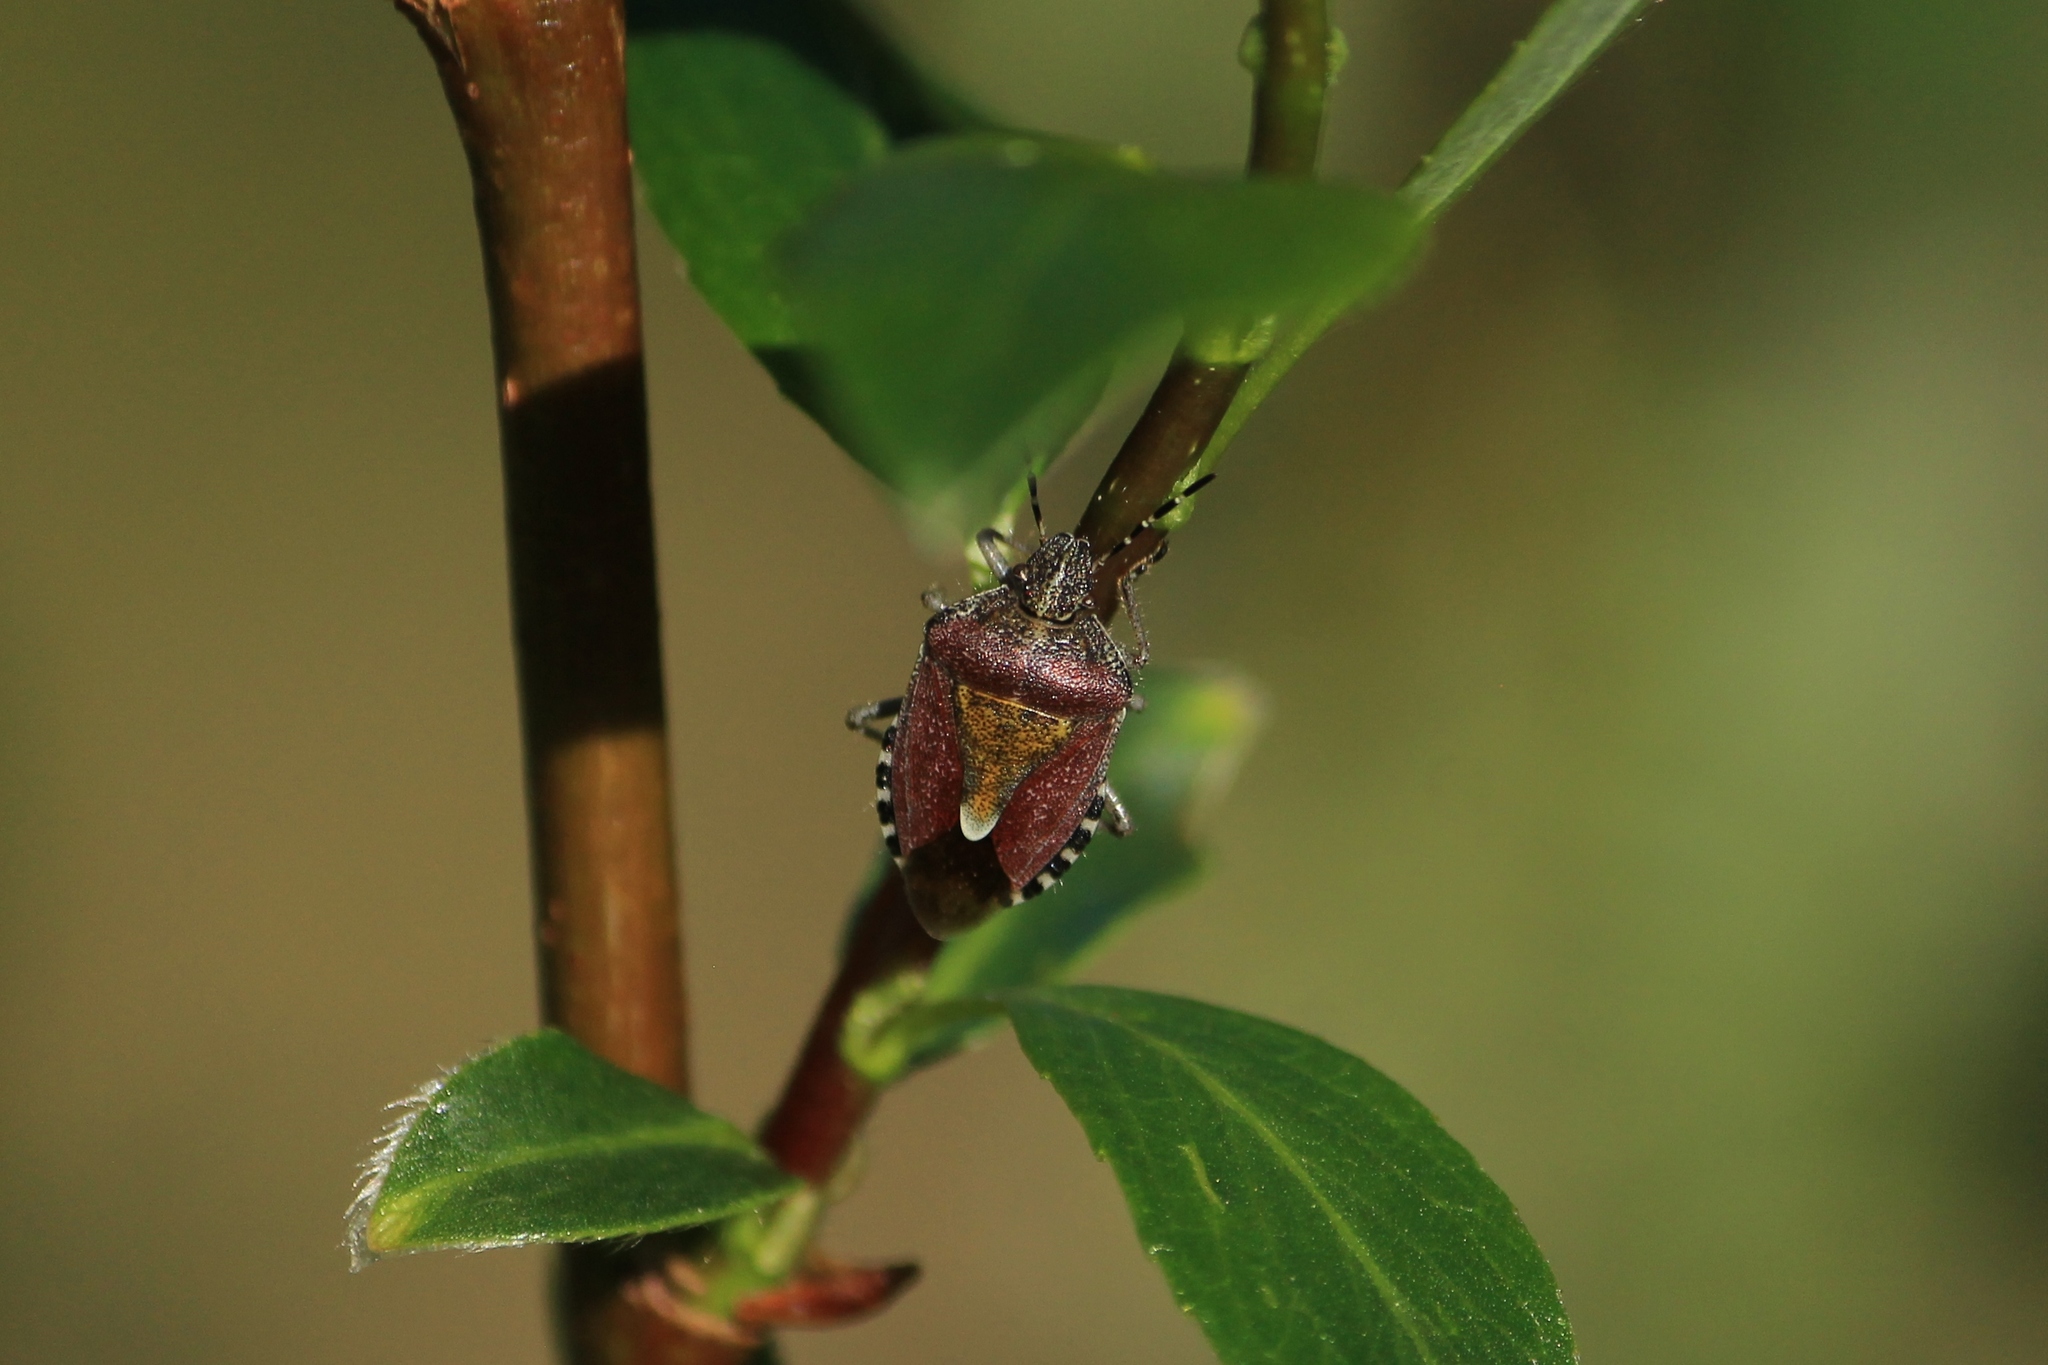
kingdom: Animalia
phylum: Arthropoda
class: Insecta
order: Hemiptera
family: Pentatomidae
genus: Dolycoris
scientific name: Dolycoris baccarum
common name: Sloe bug
